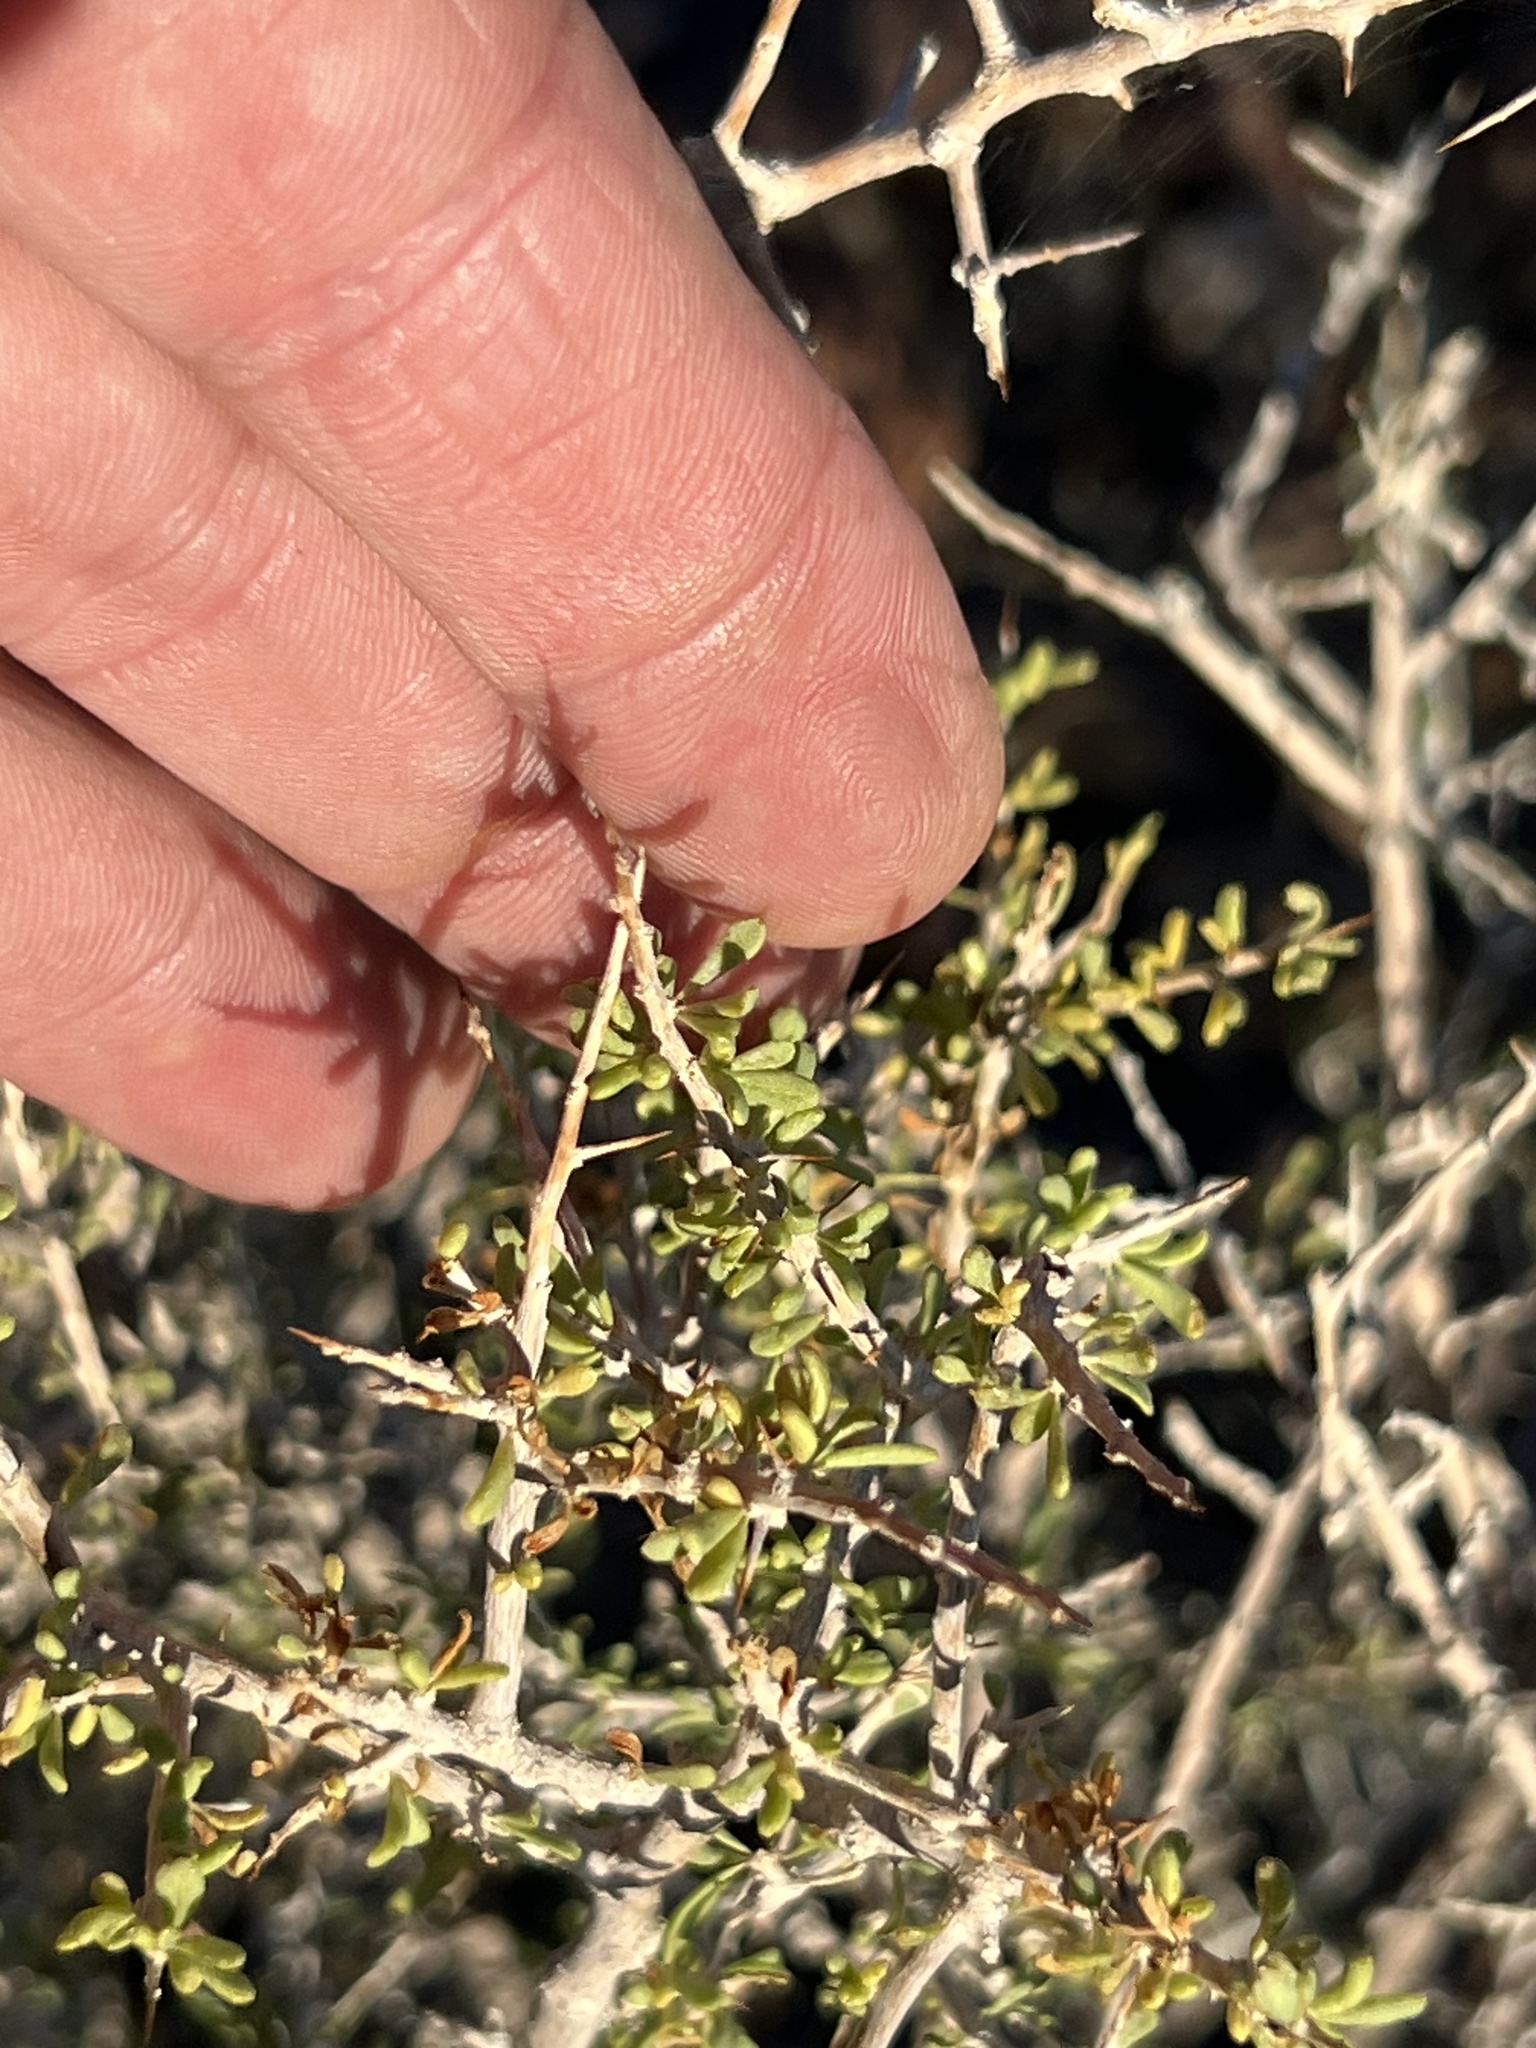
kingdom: Plantae
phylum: Tracheophyta
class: Magnoliopsida
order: Solanales
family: Solanaceae
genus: Lycium
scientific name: Lycium andersonii
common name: Water-jacket
